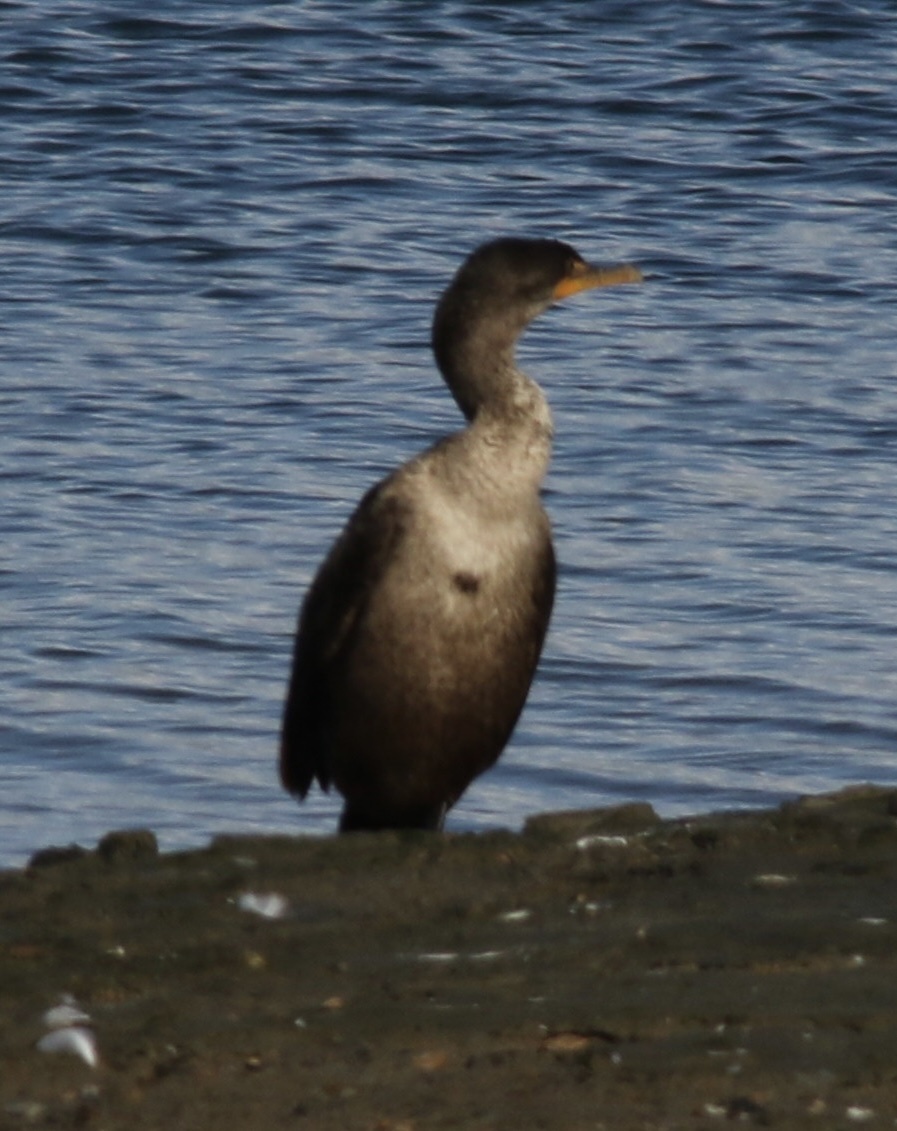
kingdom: Animalia
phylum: Chordata
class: Aves
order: Suliformes
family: Phalacrocoracidae
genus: Phalacrocorax
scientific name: Phalacrocorax auritus
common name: Double-crested cormorant
